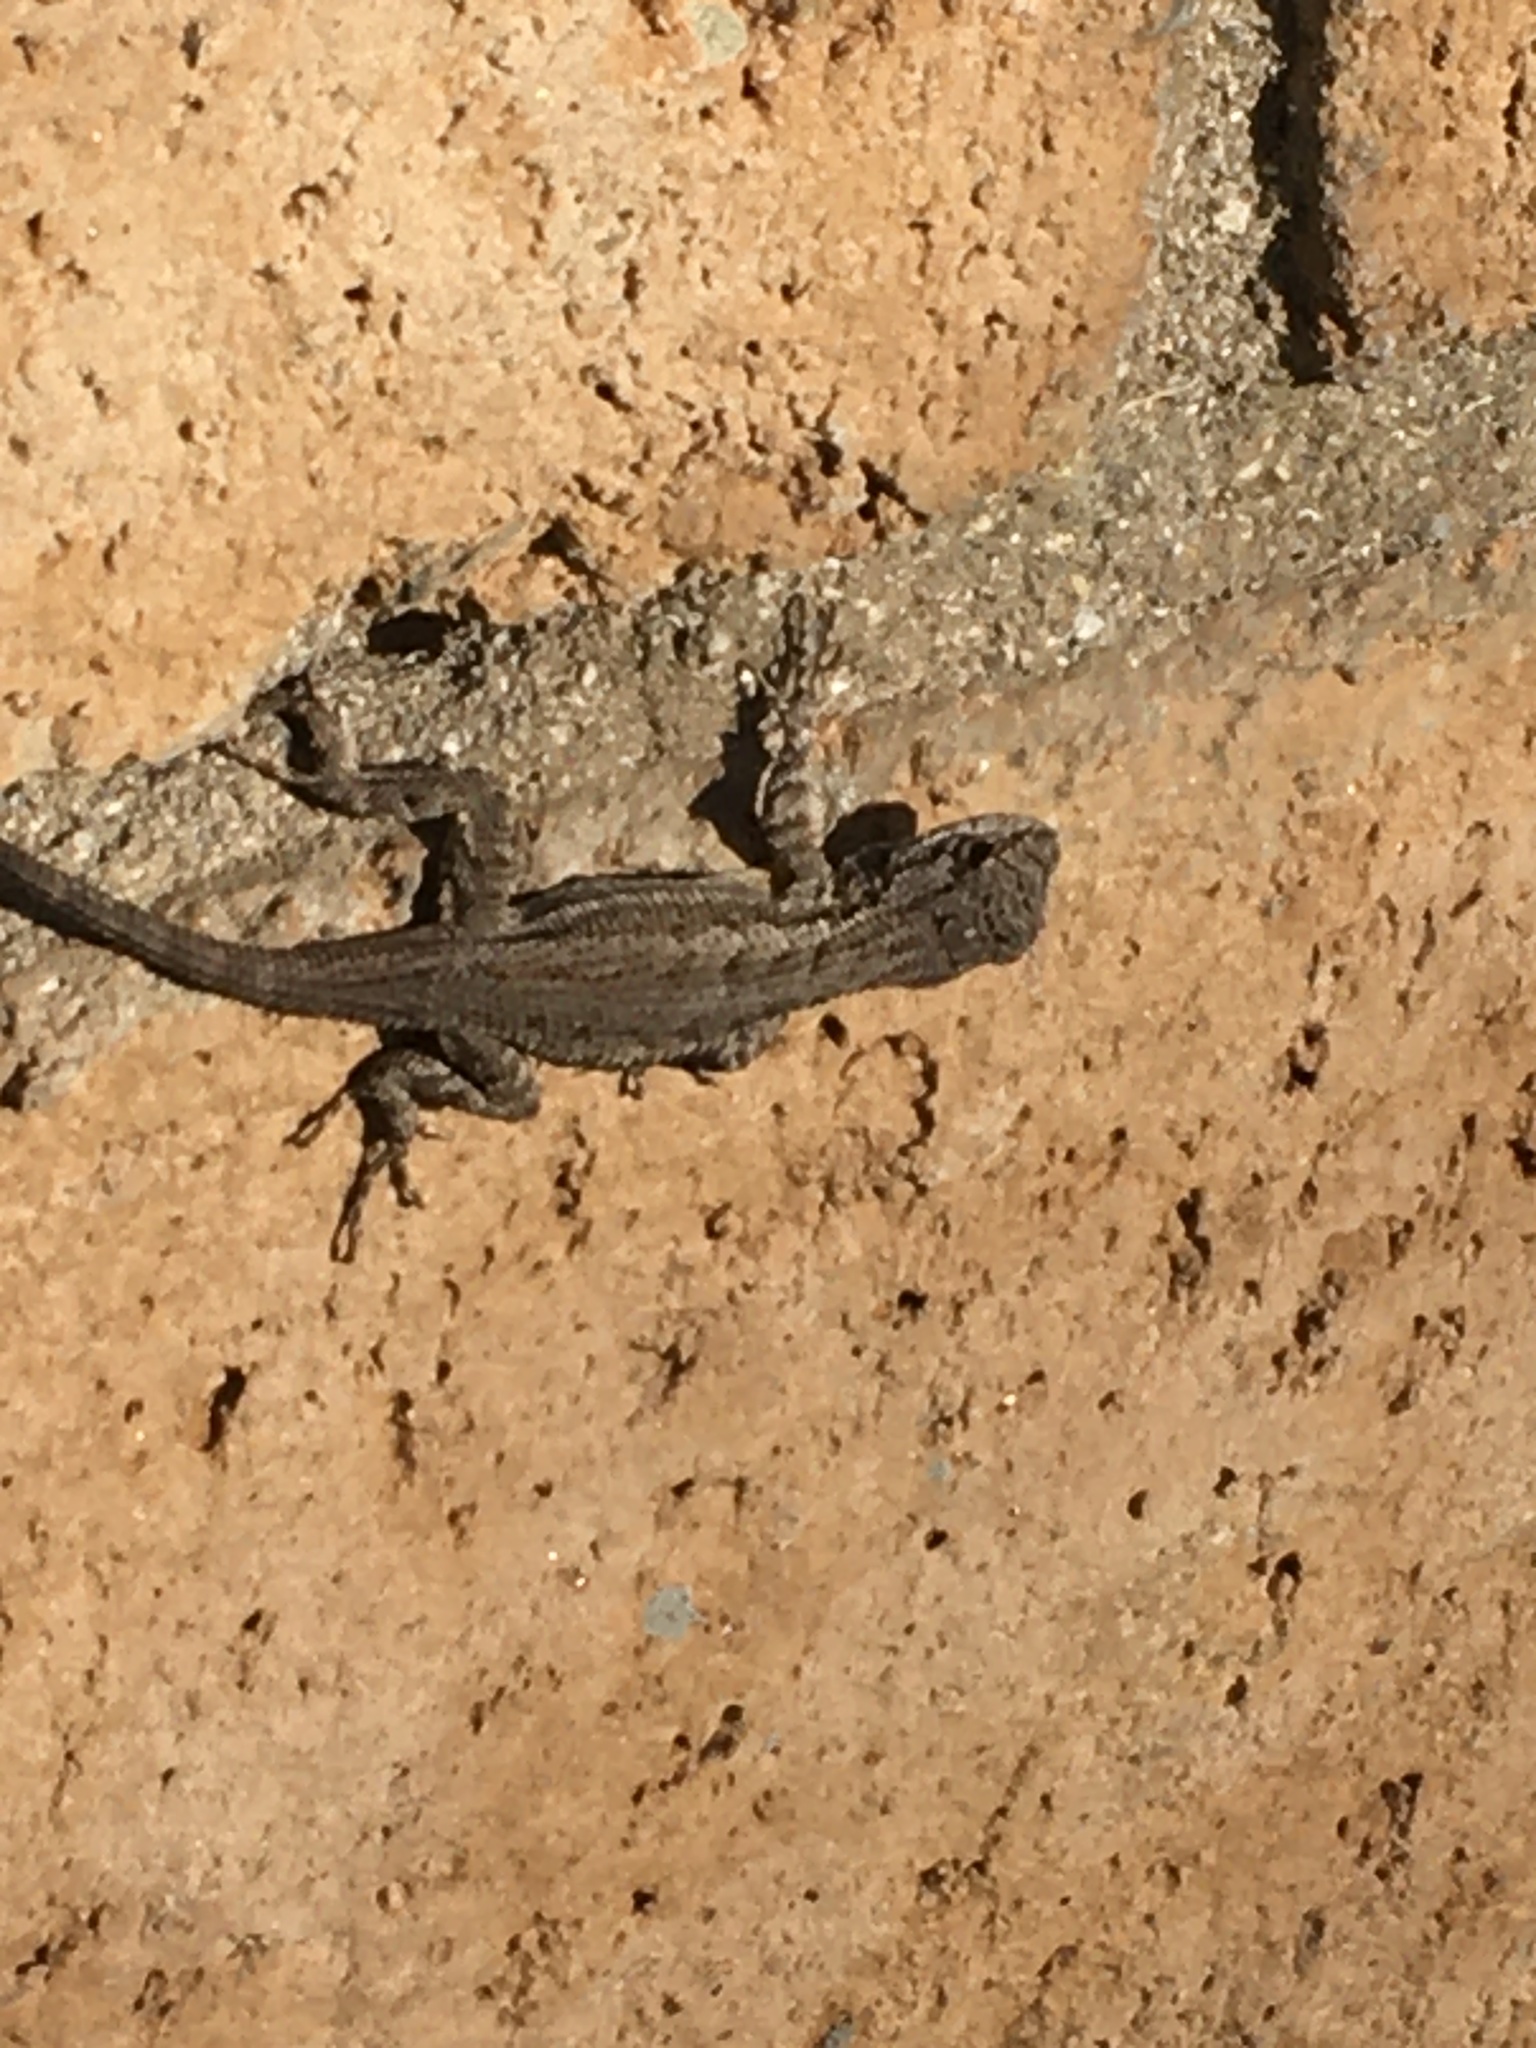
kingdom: Animalia
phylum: Chordata
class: Squamata
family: Phrynosomatidae
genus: Sceloporus
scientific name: Sceloporus occidentalis
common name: Western fence lizard
